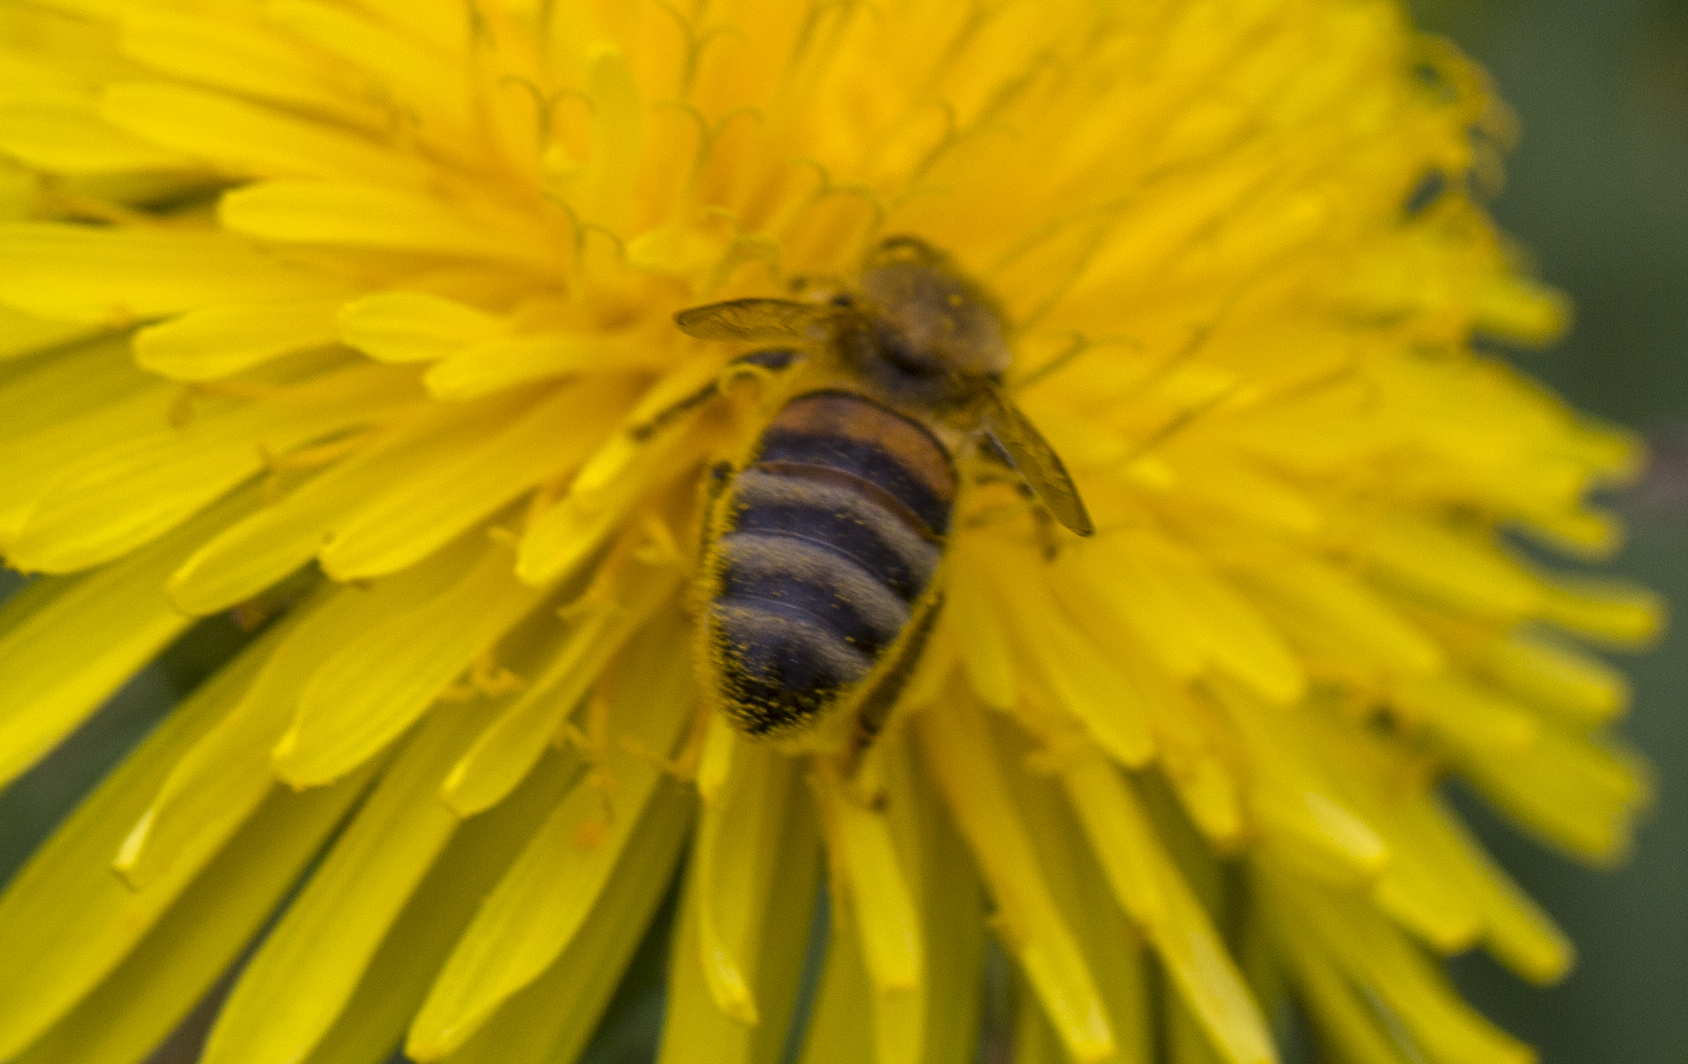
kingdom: Animalia
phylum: Arthropoda
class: Insecta
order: Hymenoptera
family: Apidae
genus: Apis
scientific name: Apis mellifera
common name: Honey bee
